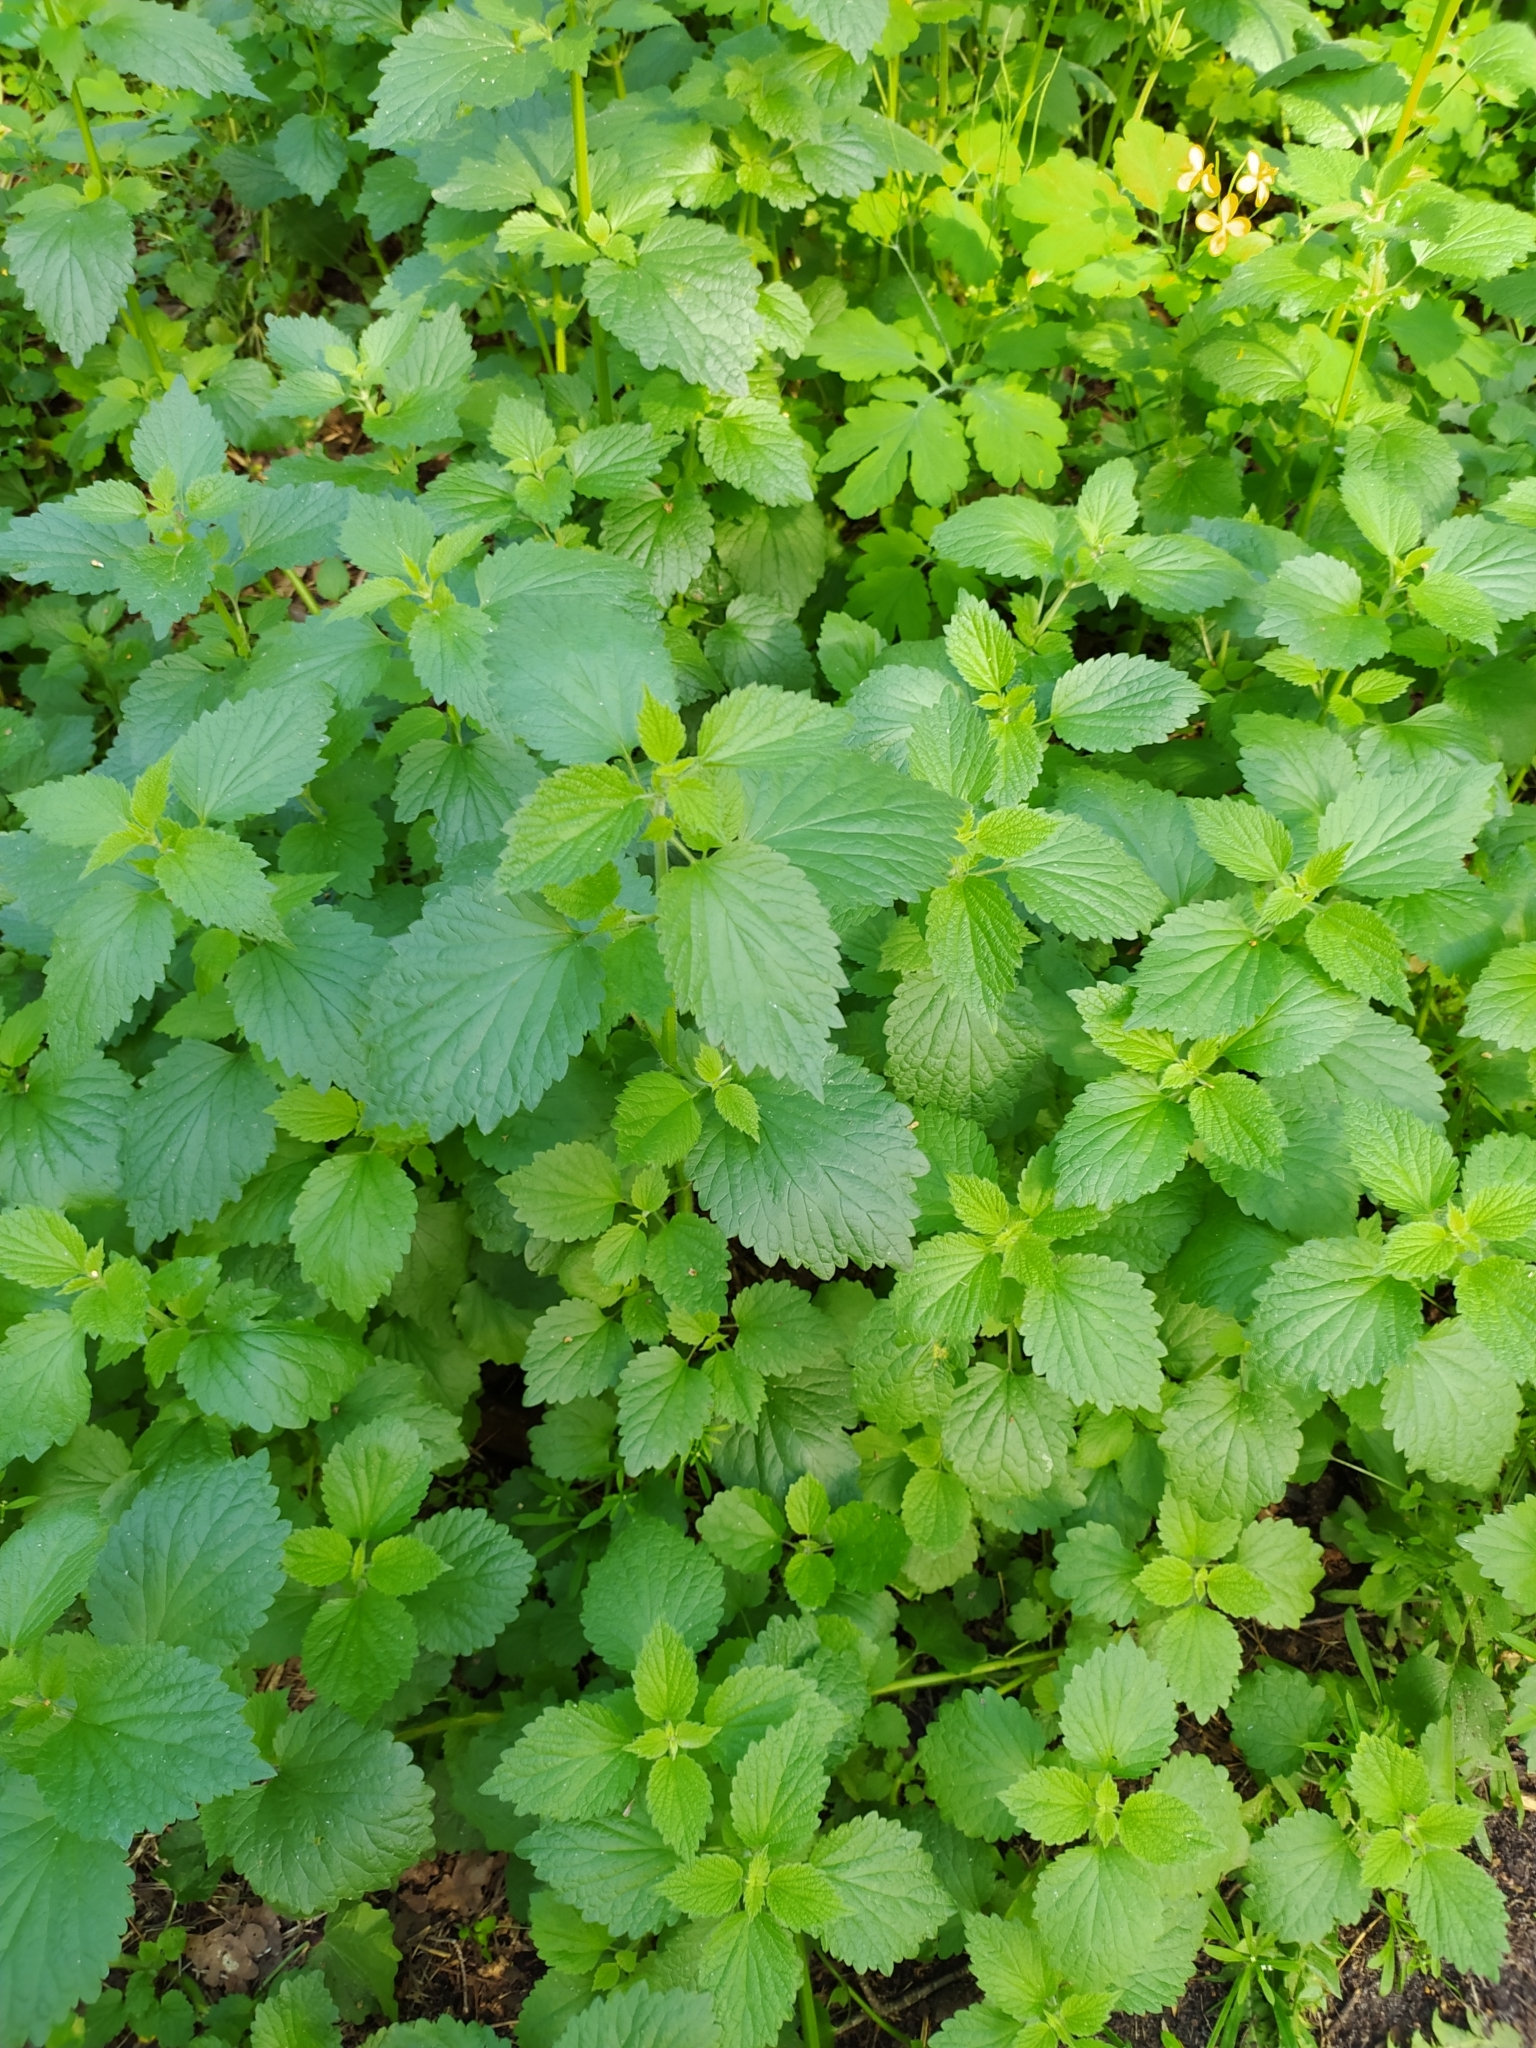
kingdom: Plantae
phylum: Tracheophyta
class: Magnoliopsida
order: Lamiales
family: Lamiaceae
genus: Ballota
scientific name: Ballota nigra
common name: Black horehound
